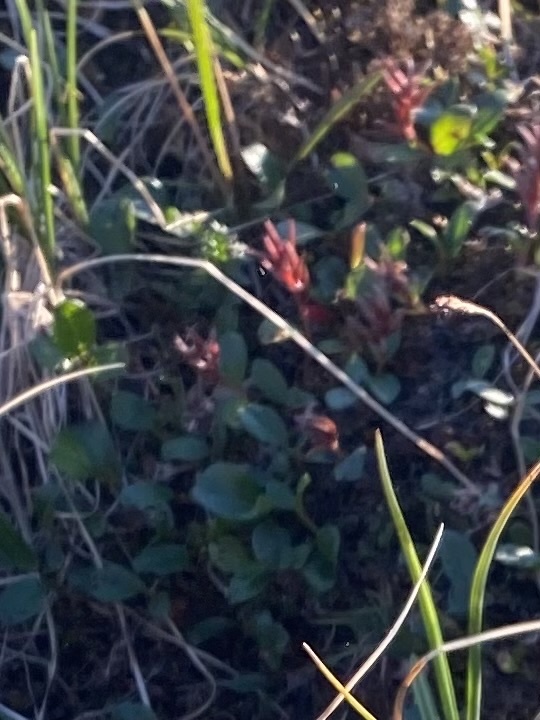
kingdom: Plantae
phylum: Tracheophyta
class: Magnoliopsida
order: Malpighiales
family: Salicaceae
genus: Salix
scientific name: Salix polaris
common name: Polar willow
